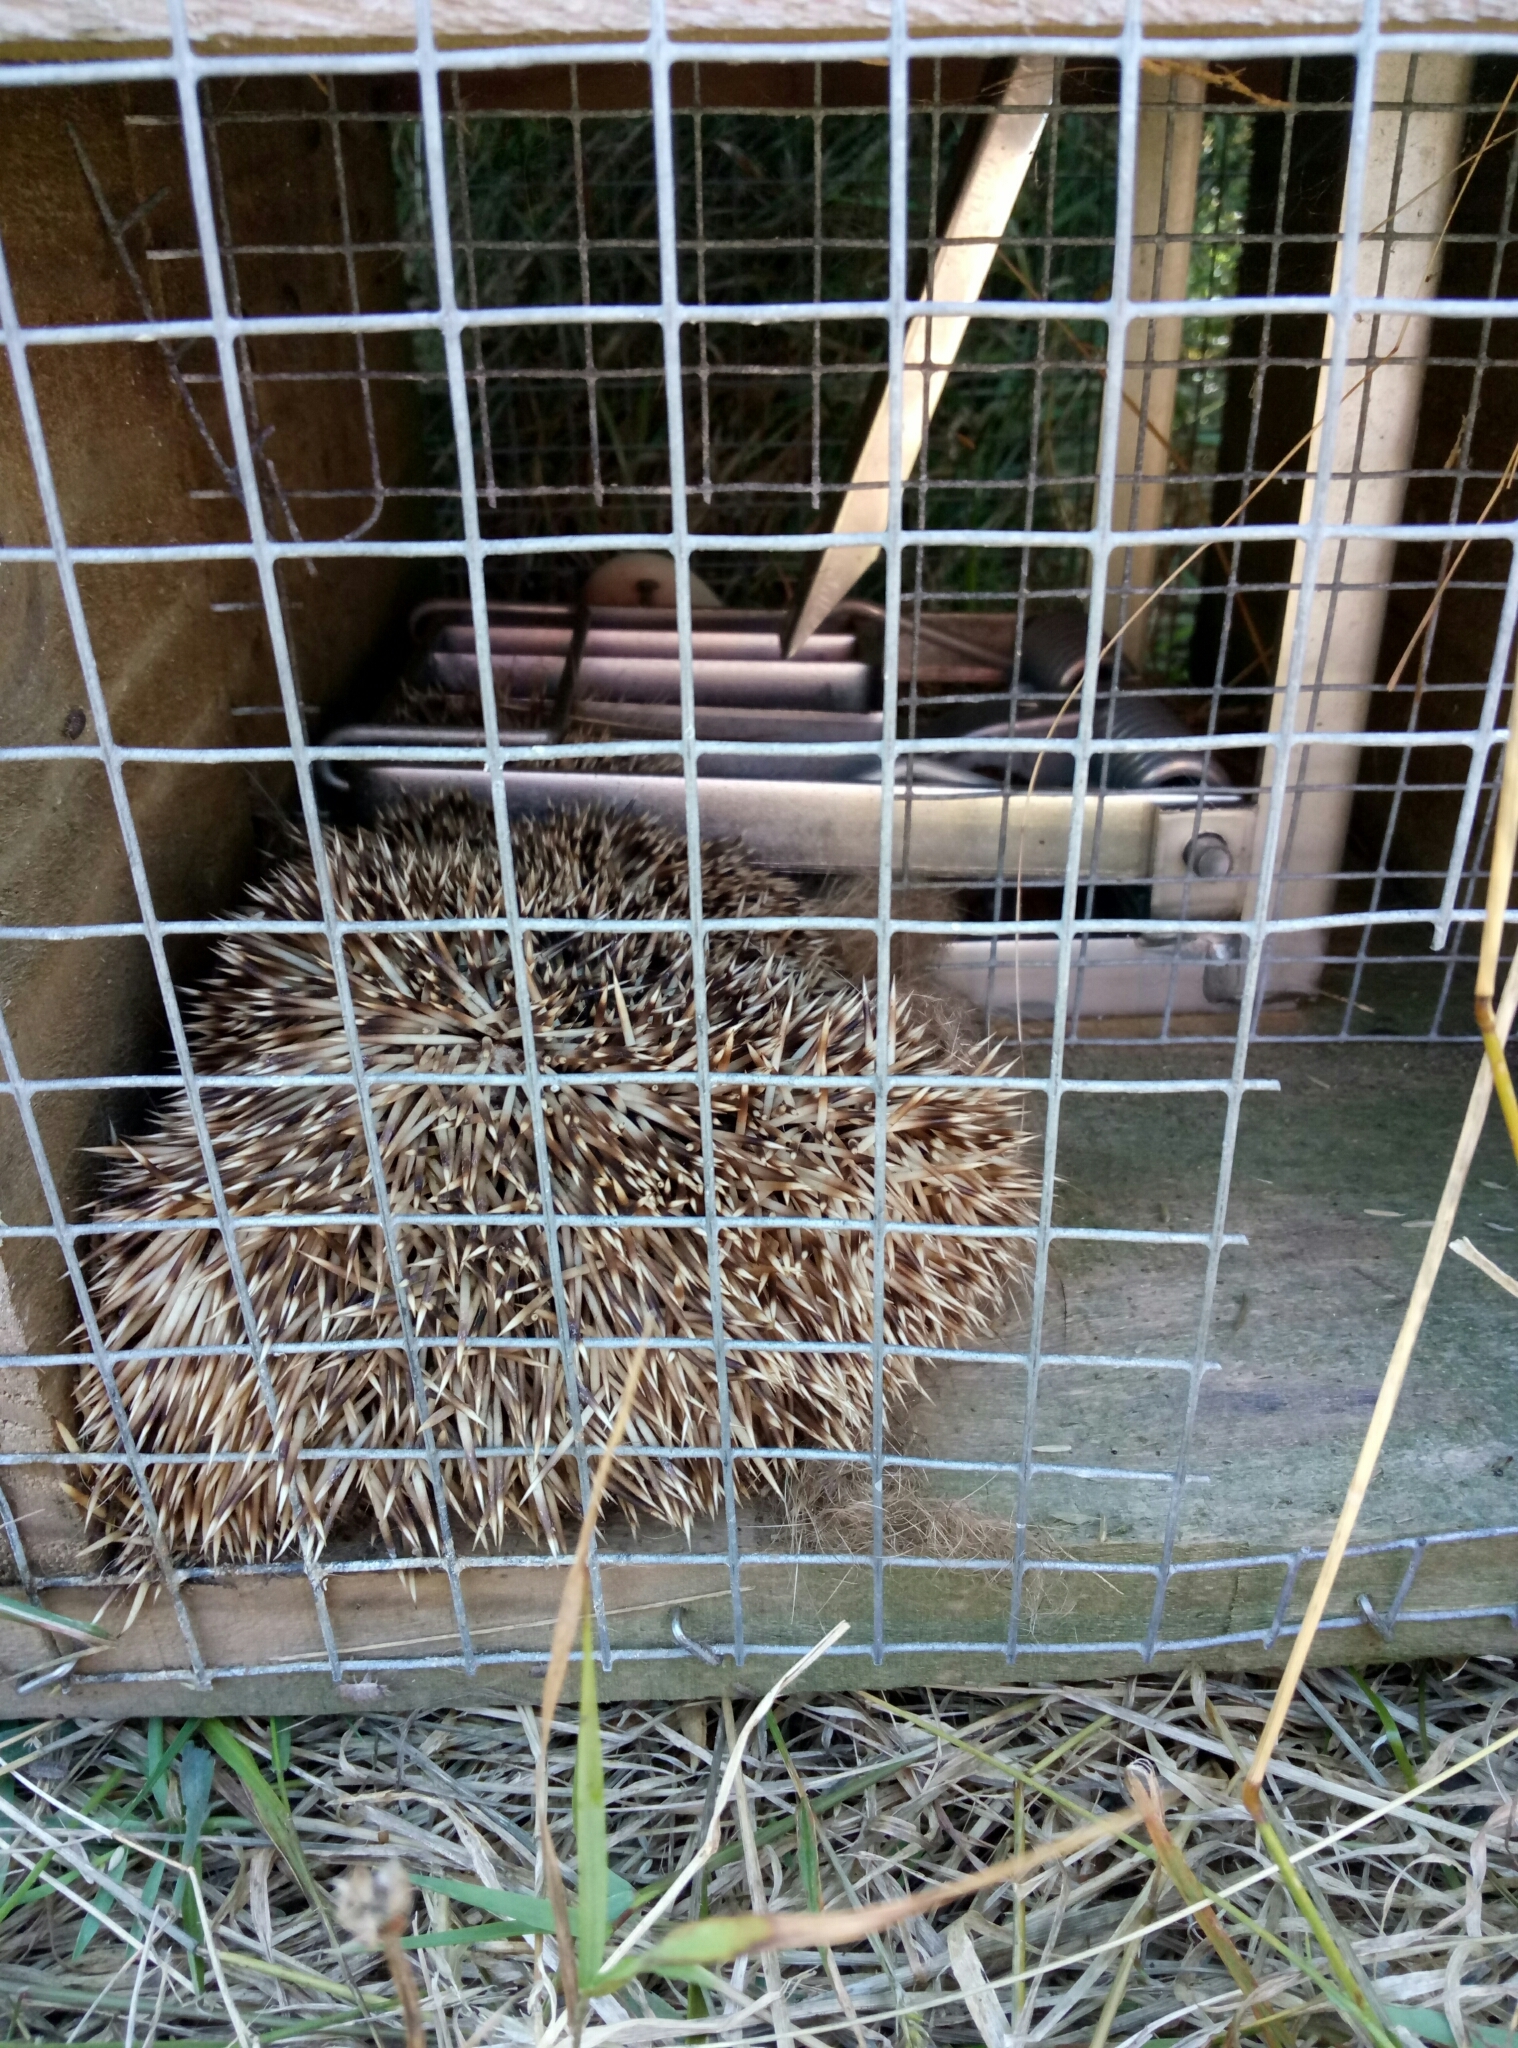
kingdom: Animalia
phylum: Chordata
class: Mammalia
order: Erinaceomorpha
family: Erinaceidae
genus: Erinaceus
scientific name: Erinaceus europaeus
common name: West european hedgehog
